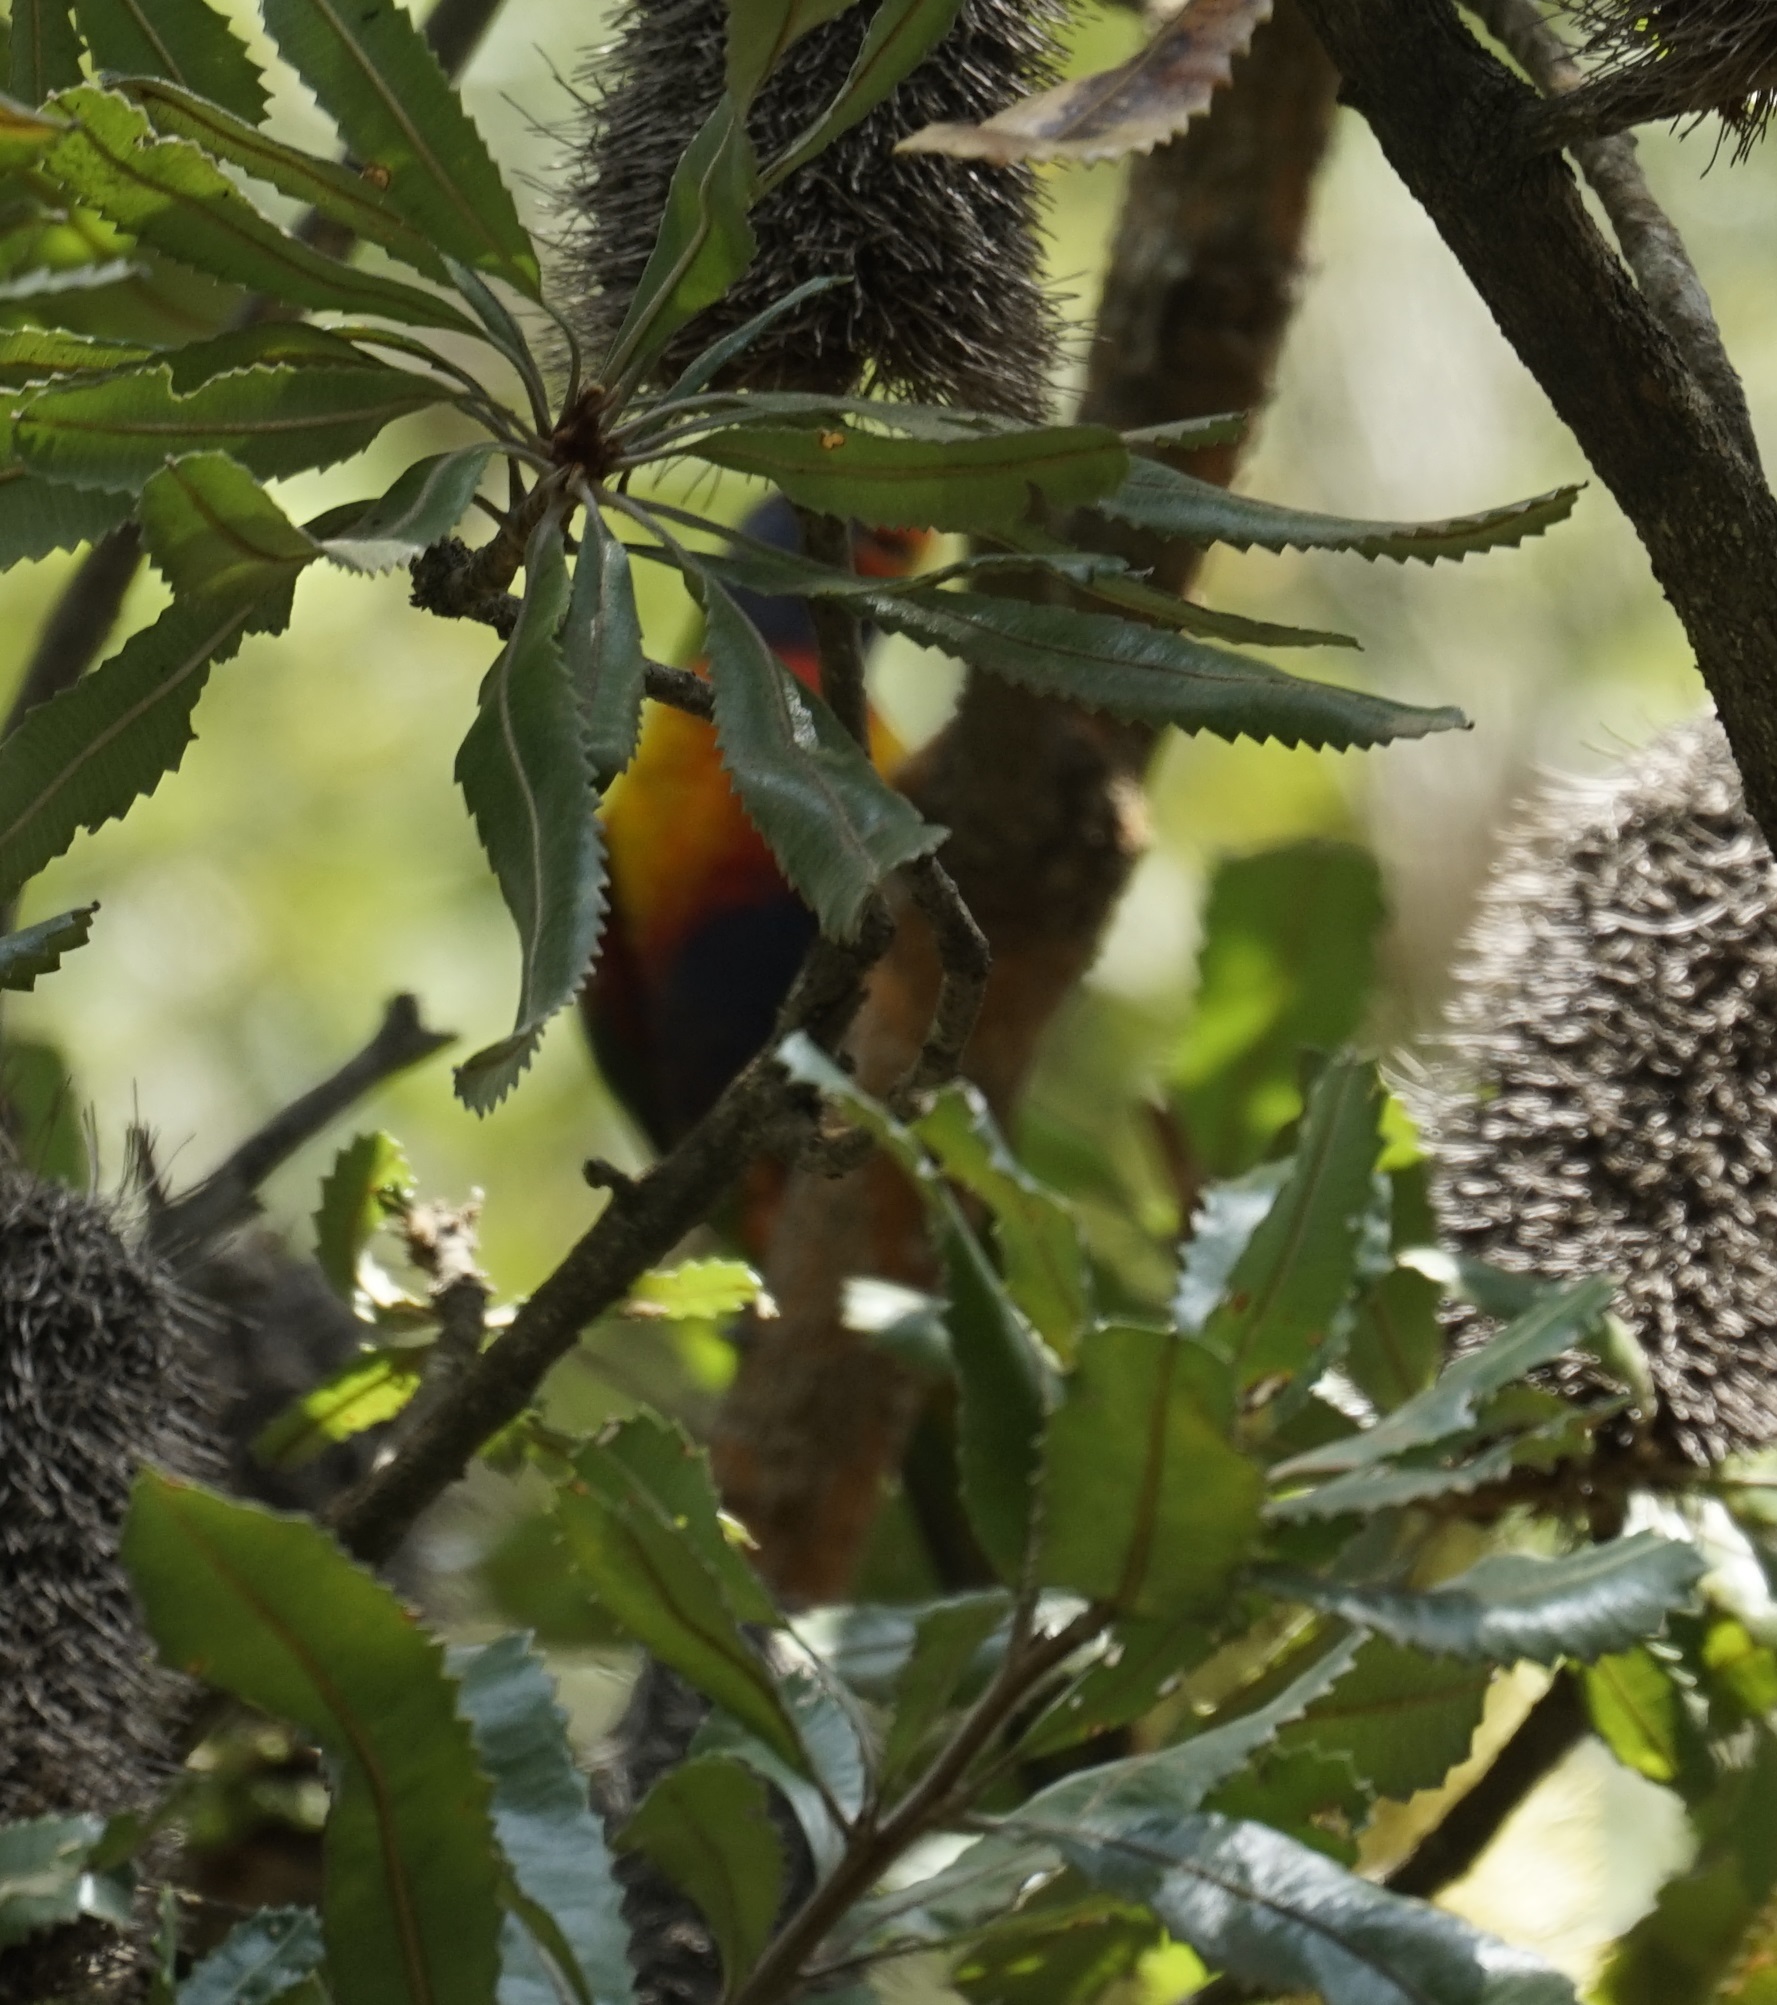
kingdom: Animalia
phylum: Chordata
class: Aves
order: Psittaciformes
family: Psittacidae
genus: Trichoglossus
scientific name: Trichoglossus haematodus
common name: Coconut lorikeet
